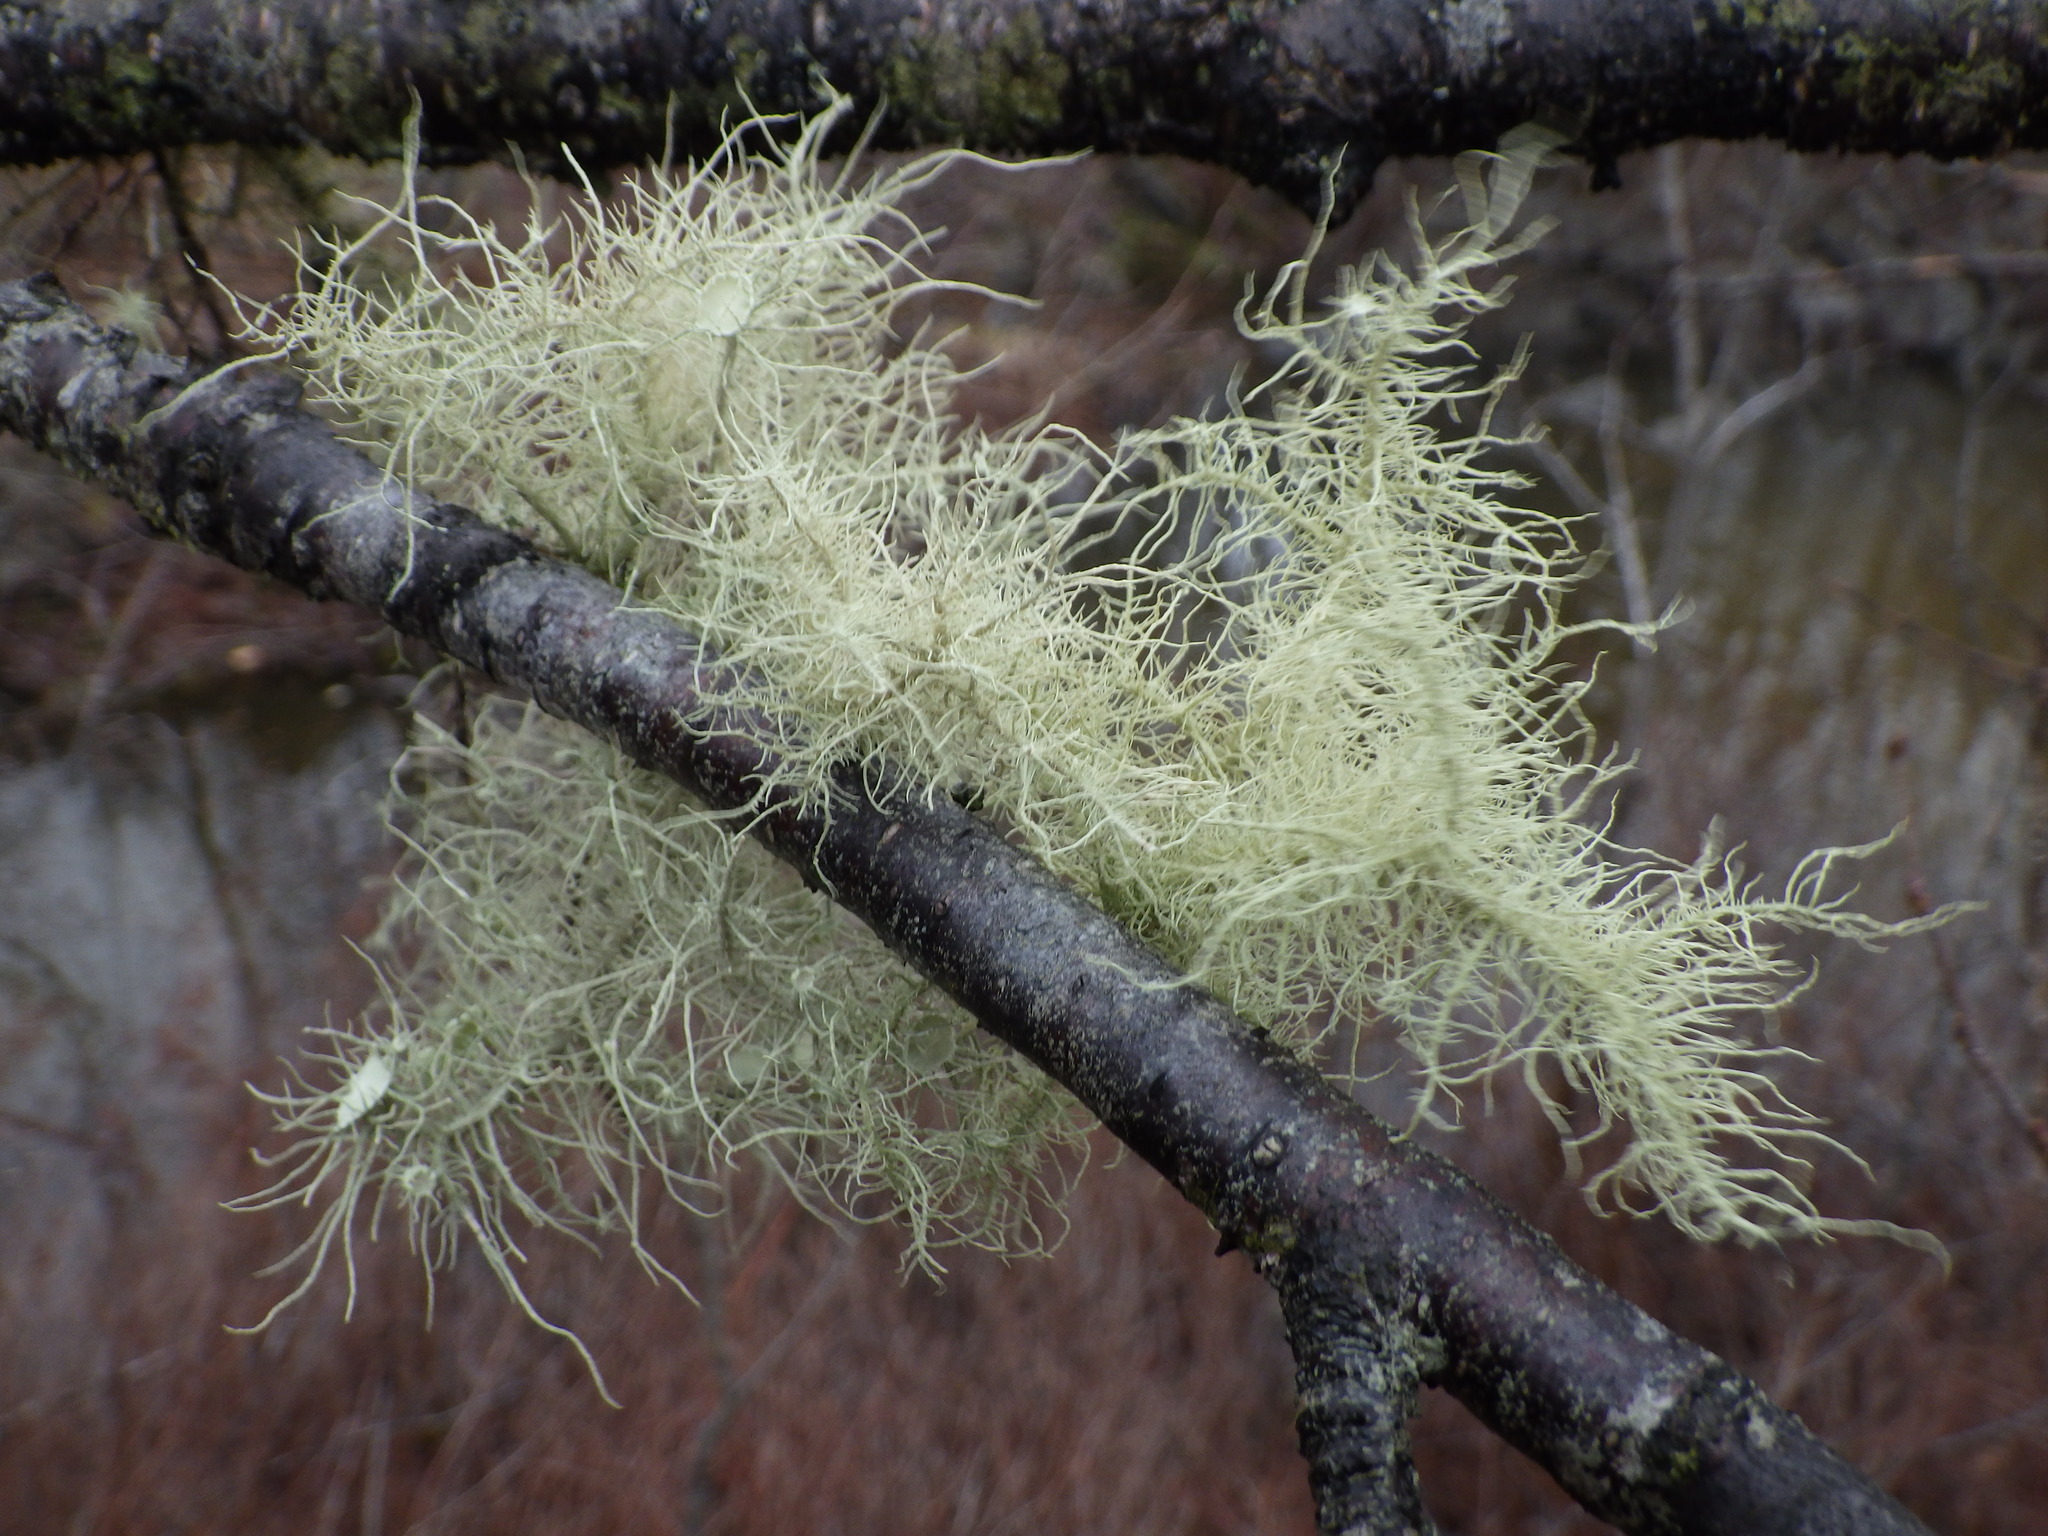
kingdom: Fungi
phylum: Ascomycota
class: Lecanoromycetes
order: Lecanorales
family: Parmeliaceae
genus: Usnea
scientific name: Usnea strigosa
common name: Bushy beard lichen
